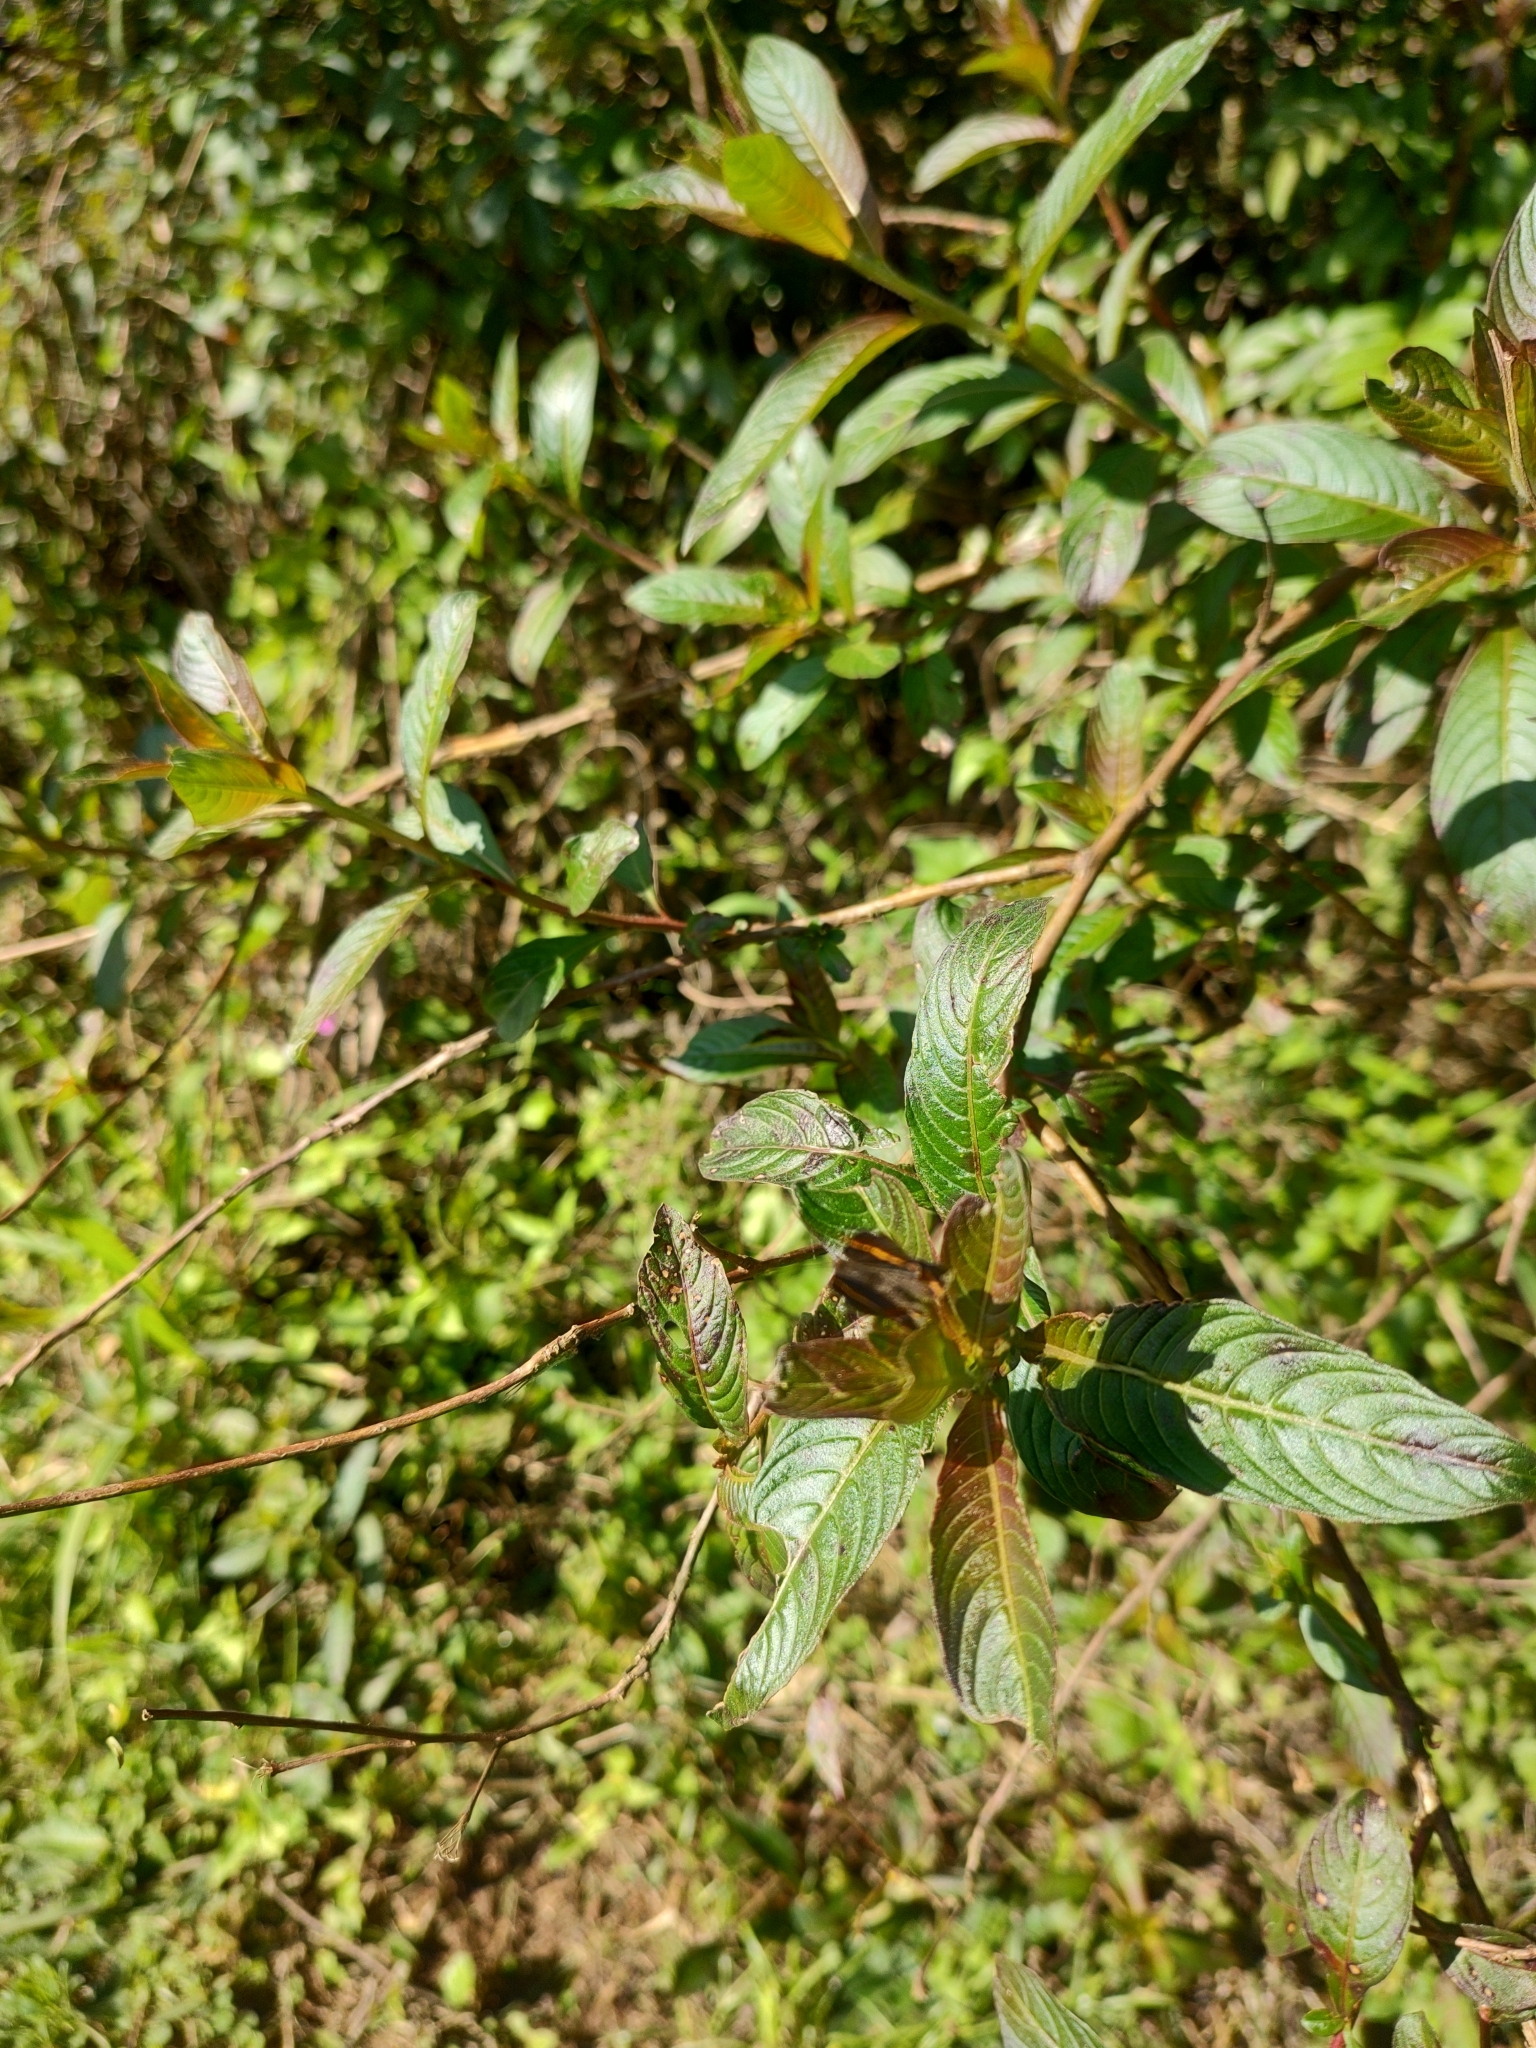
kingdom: Animalia
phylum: Arthropoda
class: Insecta
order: Lepidoptera
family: Riodinidae
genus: Riodina
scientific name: Riodina lysippoides
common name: Little dancer metalmark
